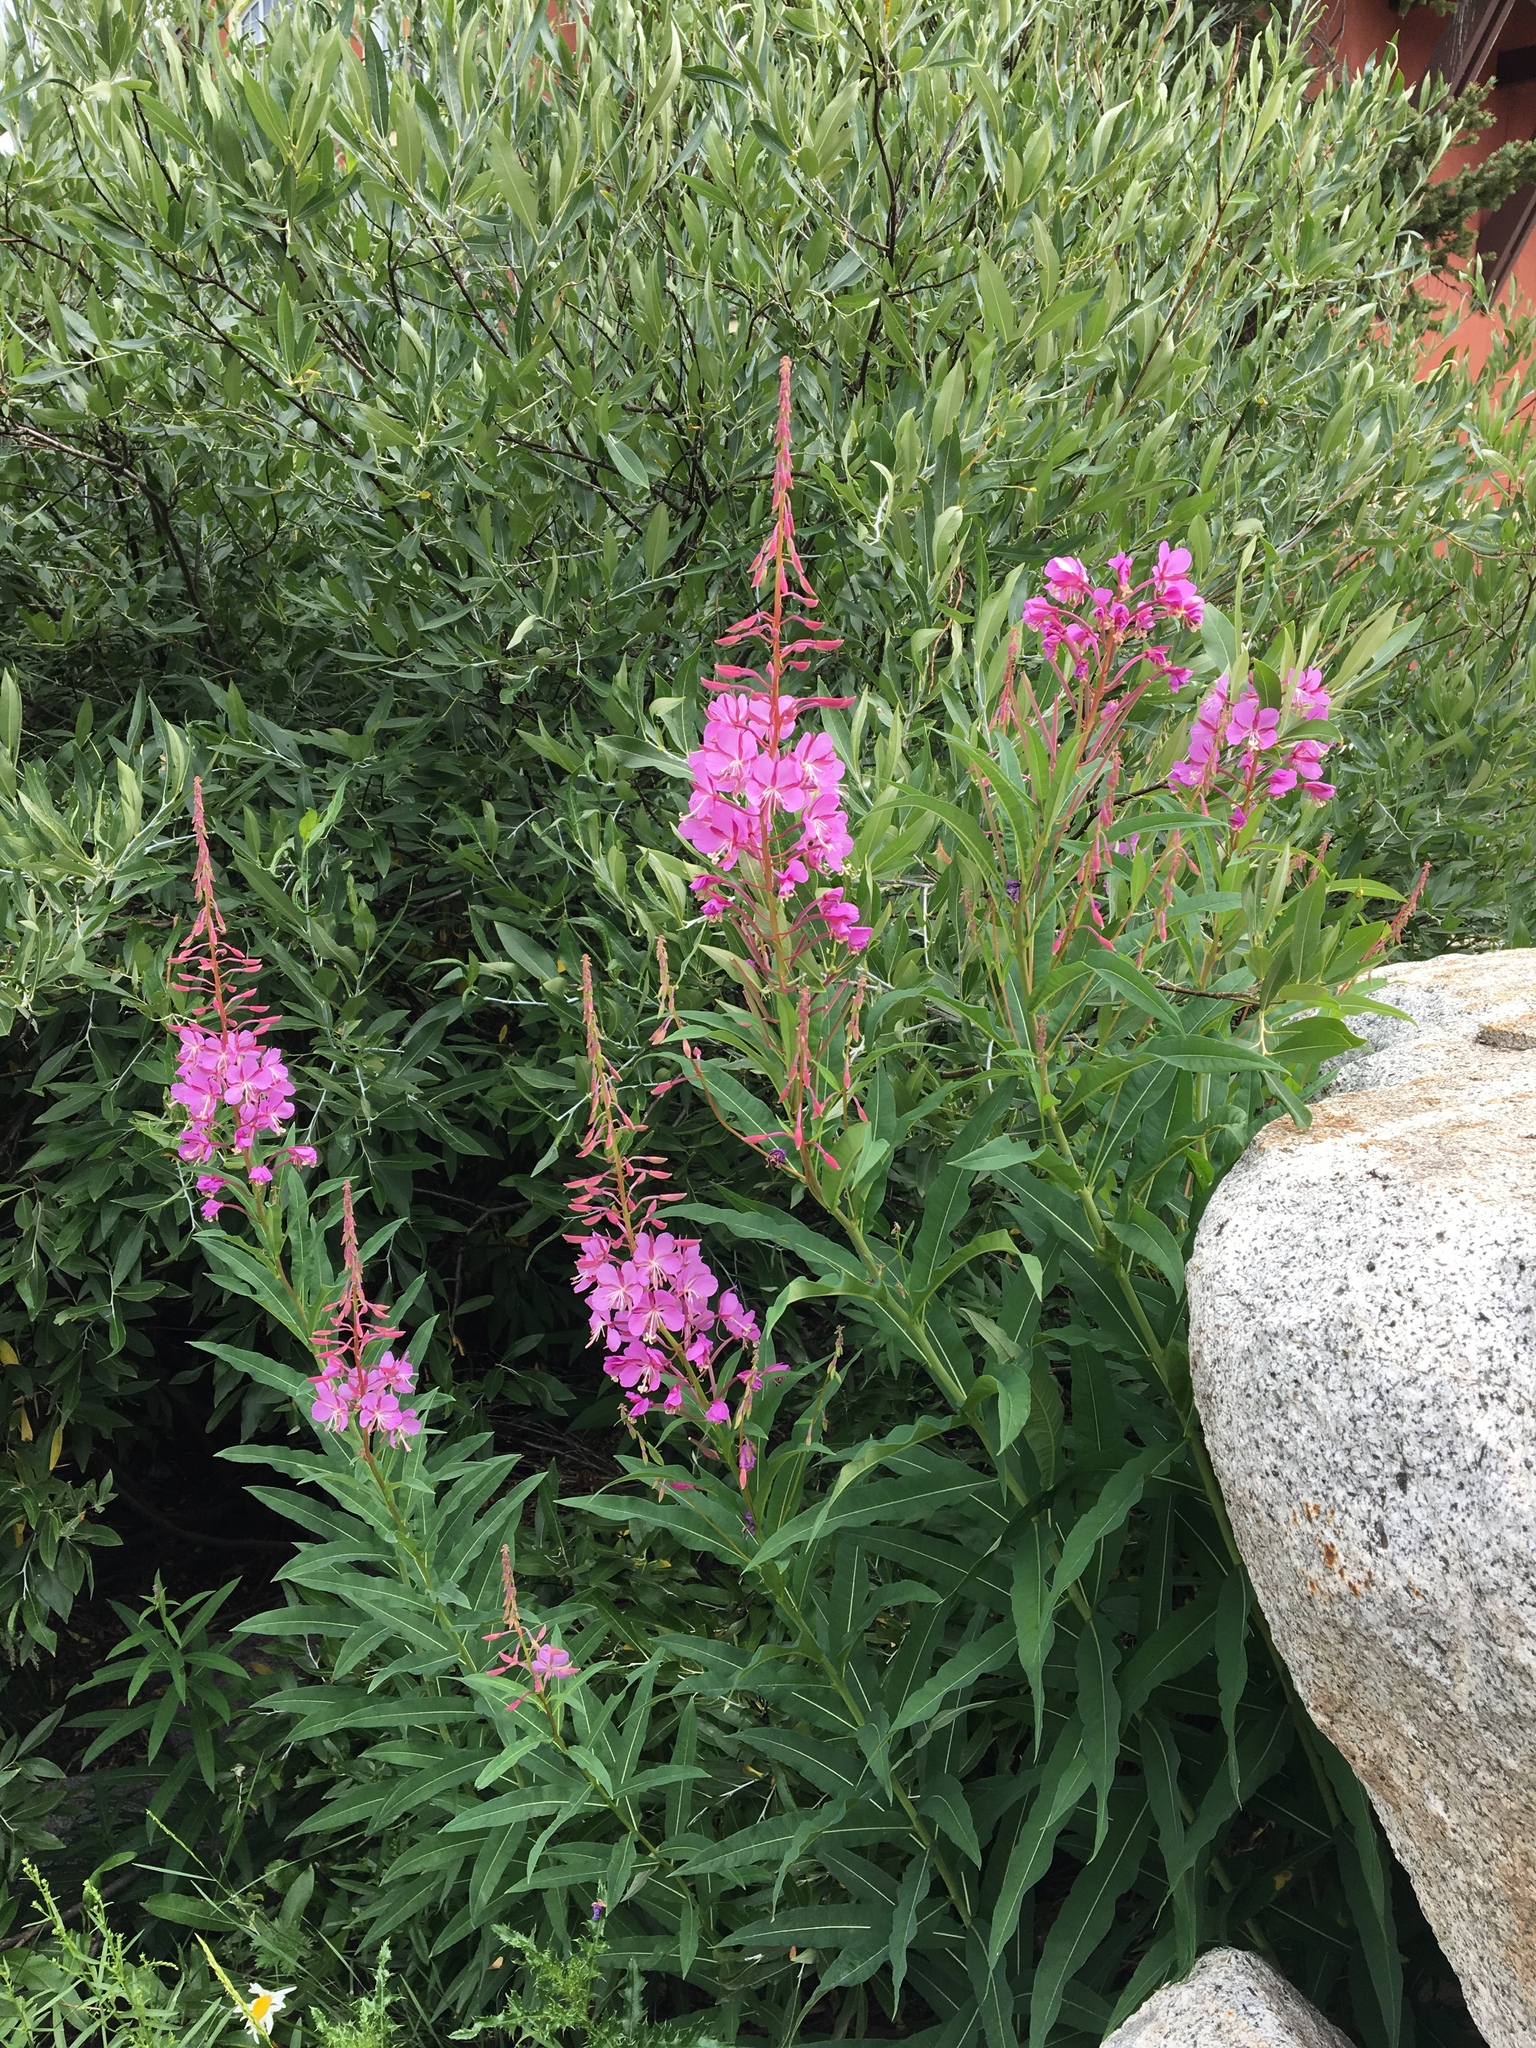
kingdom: Plantae
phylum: Tracheophyta
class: Magnoliopsida
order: Myrtales
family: Onagraceae
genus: Chamaenerion
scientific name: Chamaenerion angustifolium
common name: Fireweed
